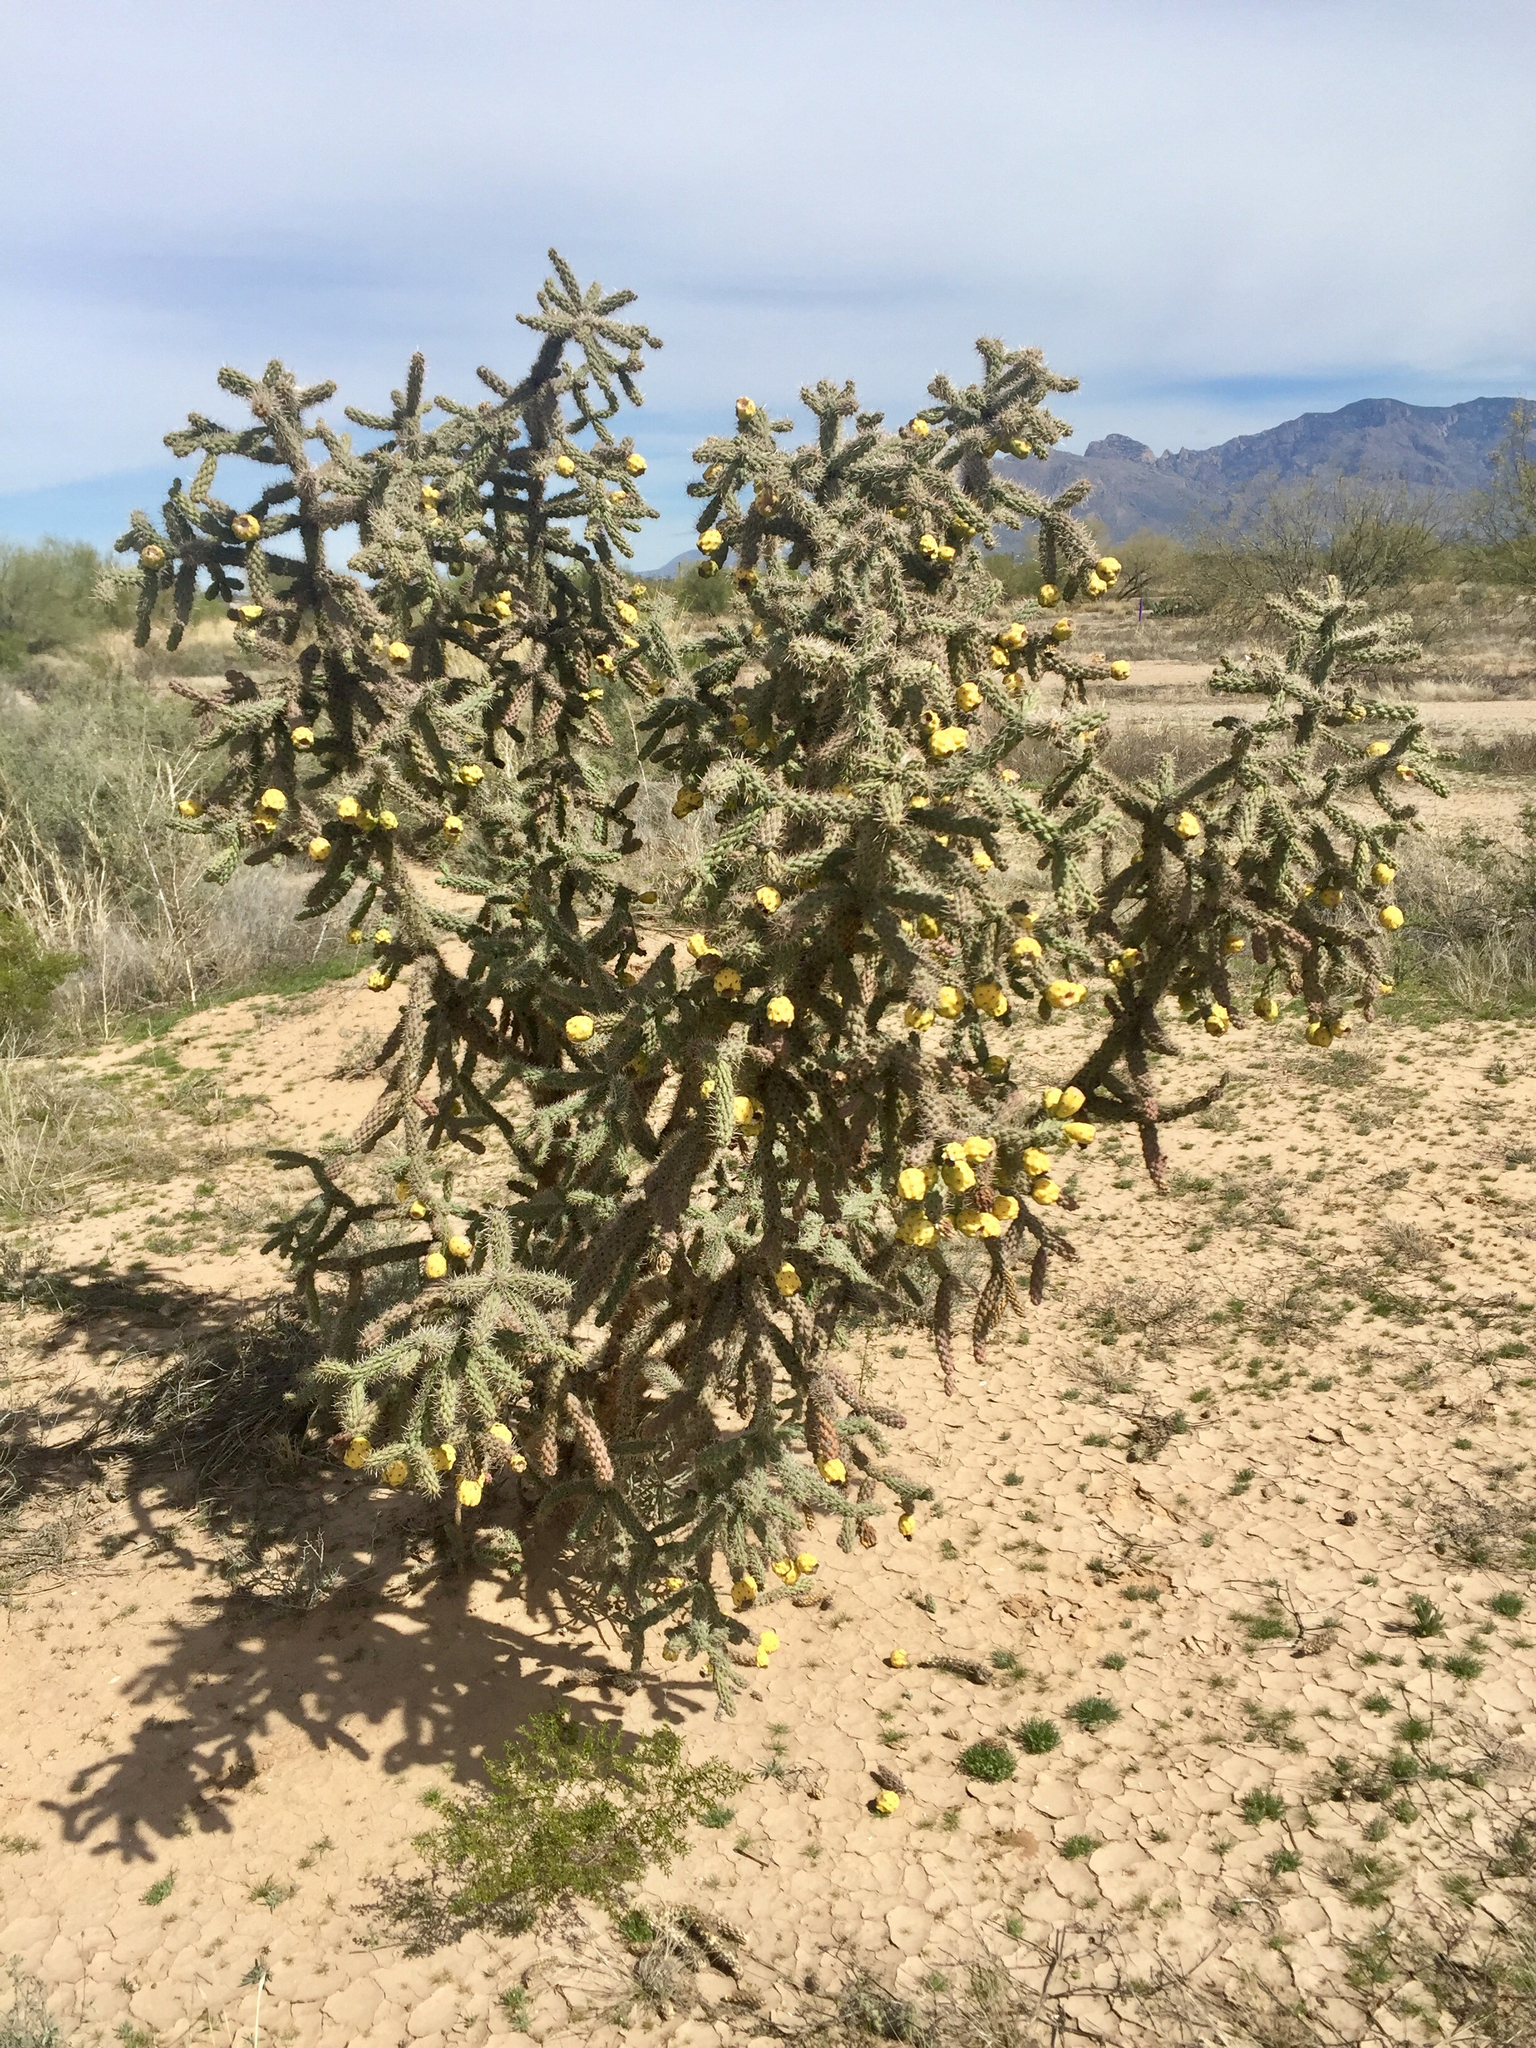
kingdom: Plantae
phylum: Tracheophyta
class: Magnoliopsida
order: Caryophyllales
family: Cactaceae
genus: Cylindropuntia
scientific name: Cylindropuntia imbricata
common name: Candelabrum cactus
